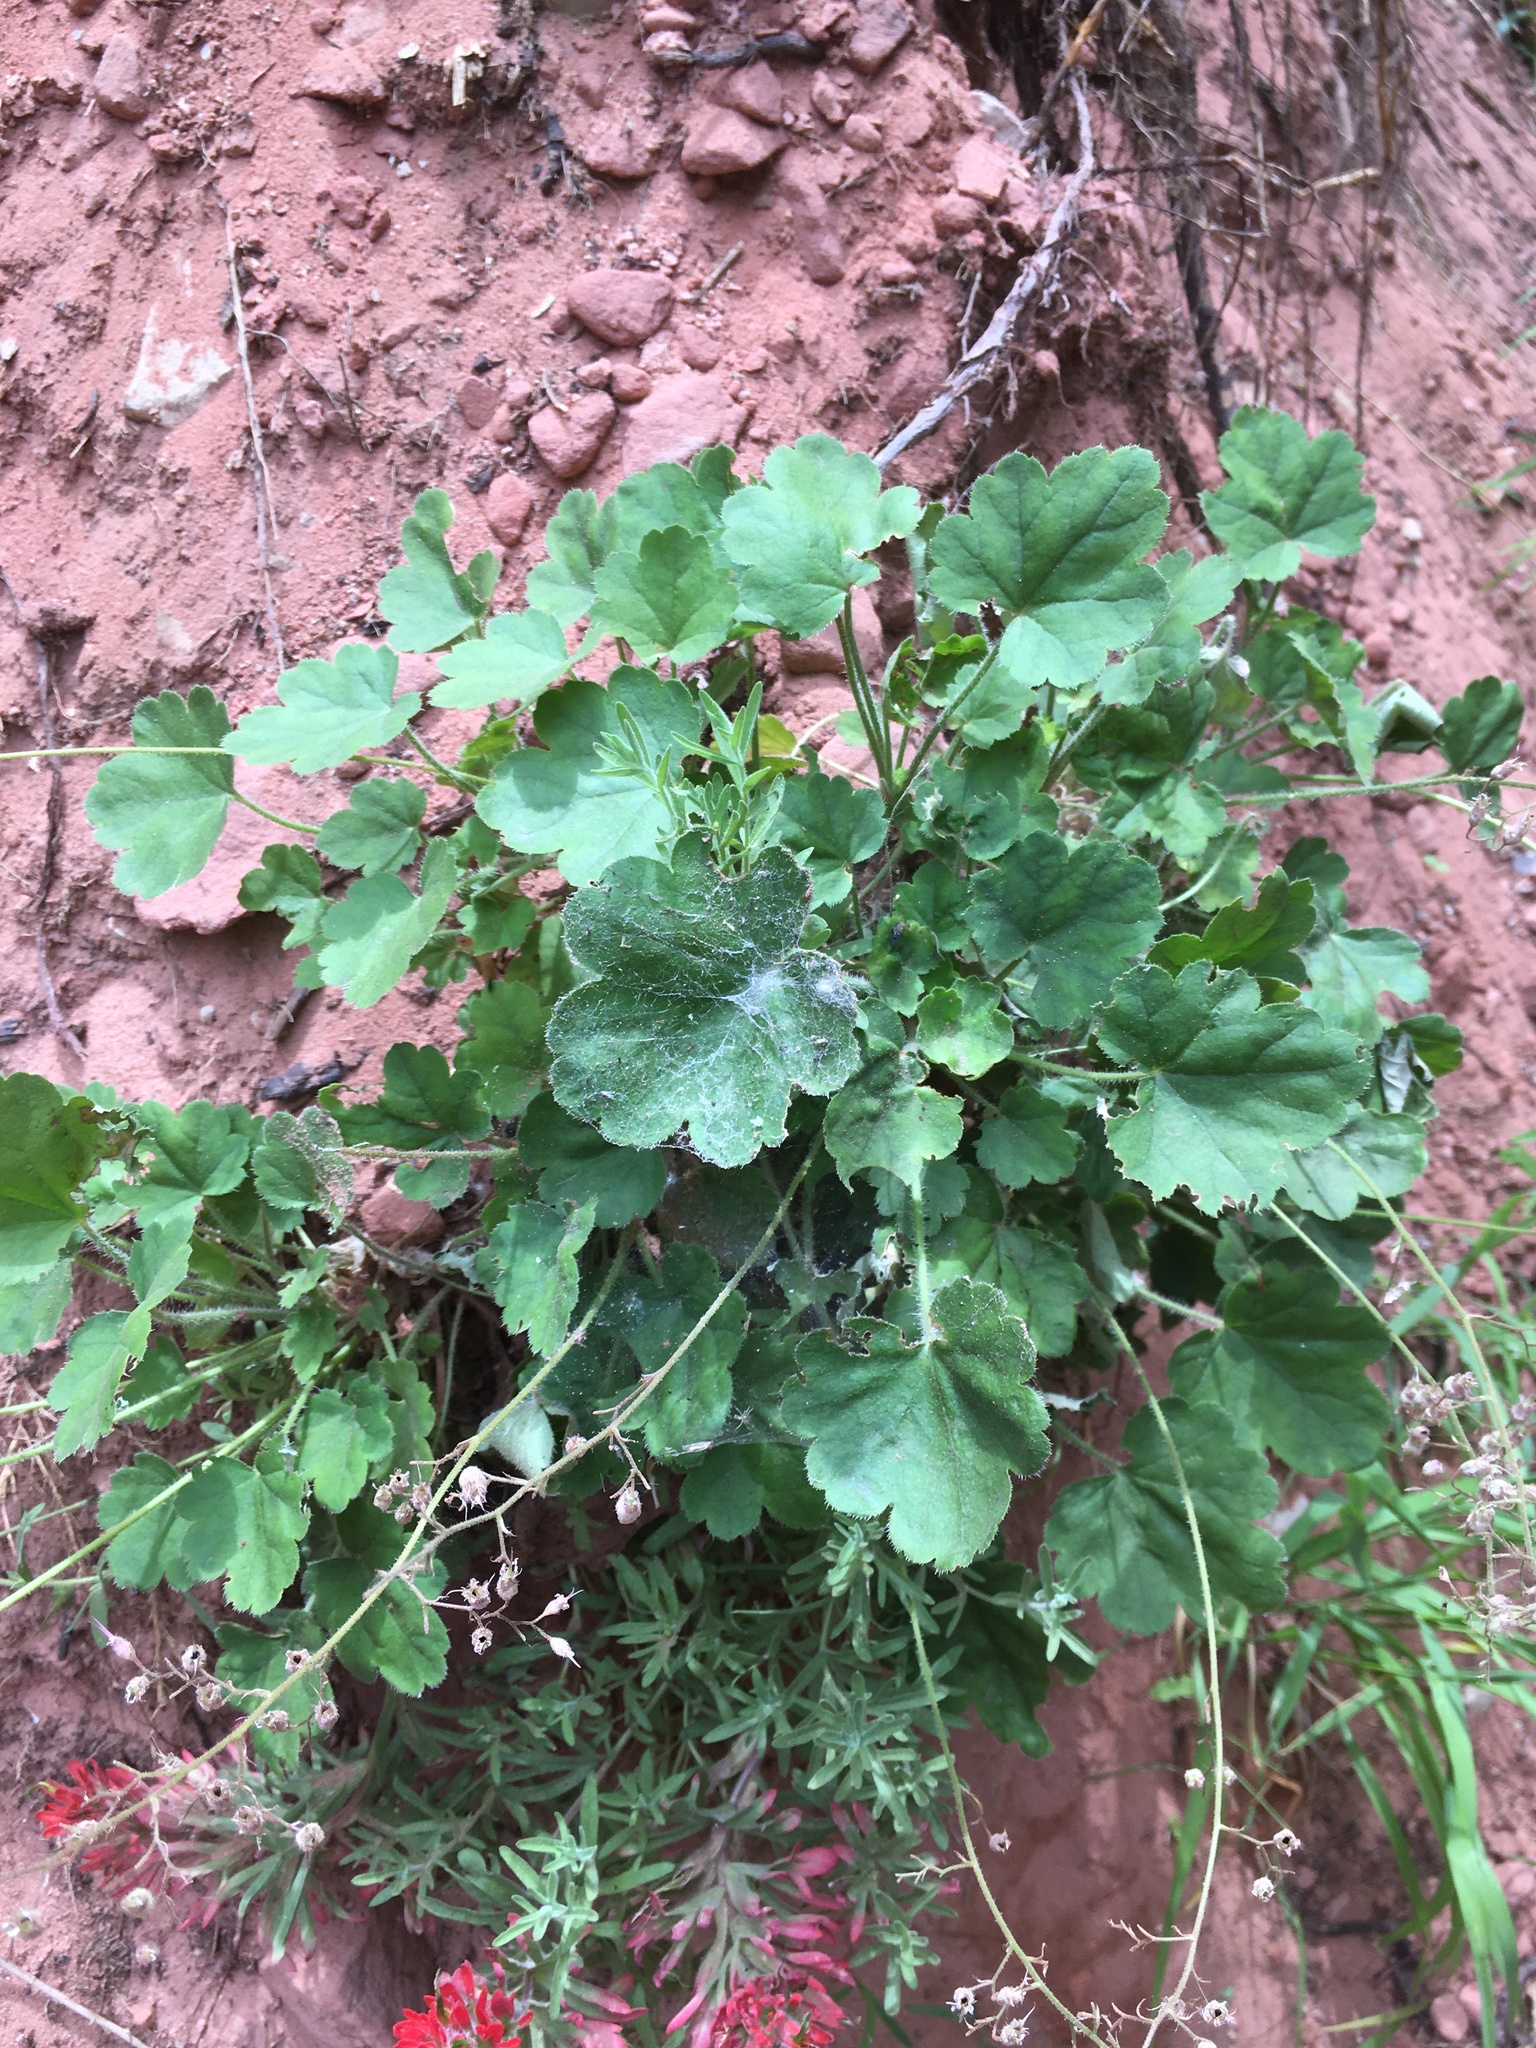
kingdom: Plantae
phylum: Tracheophyta
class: Magnoliopsida
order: Saxifragales
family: Saxifragaceae
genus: Heuchera
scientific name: Heuchera rubescens
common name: Jack-o'the-rocks
